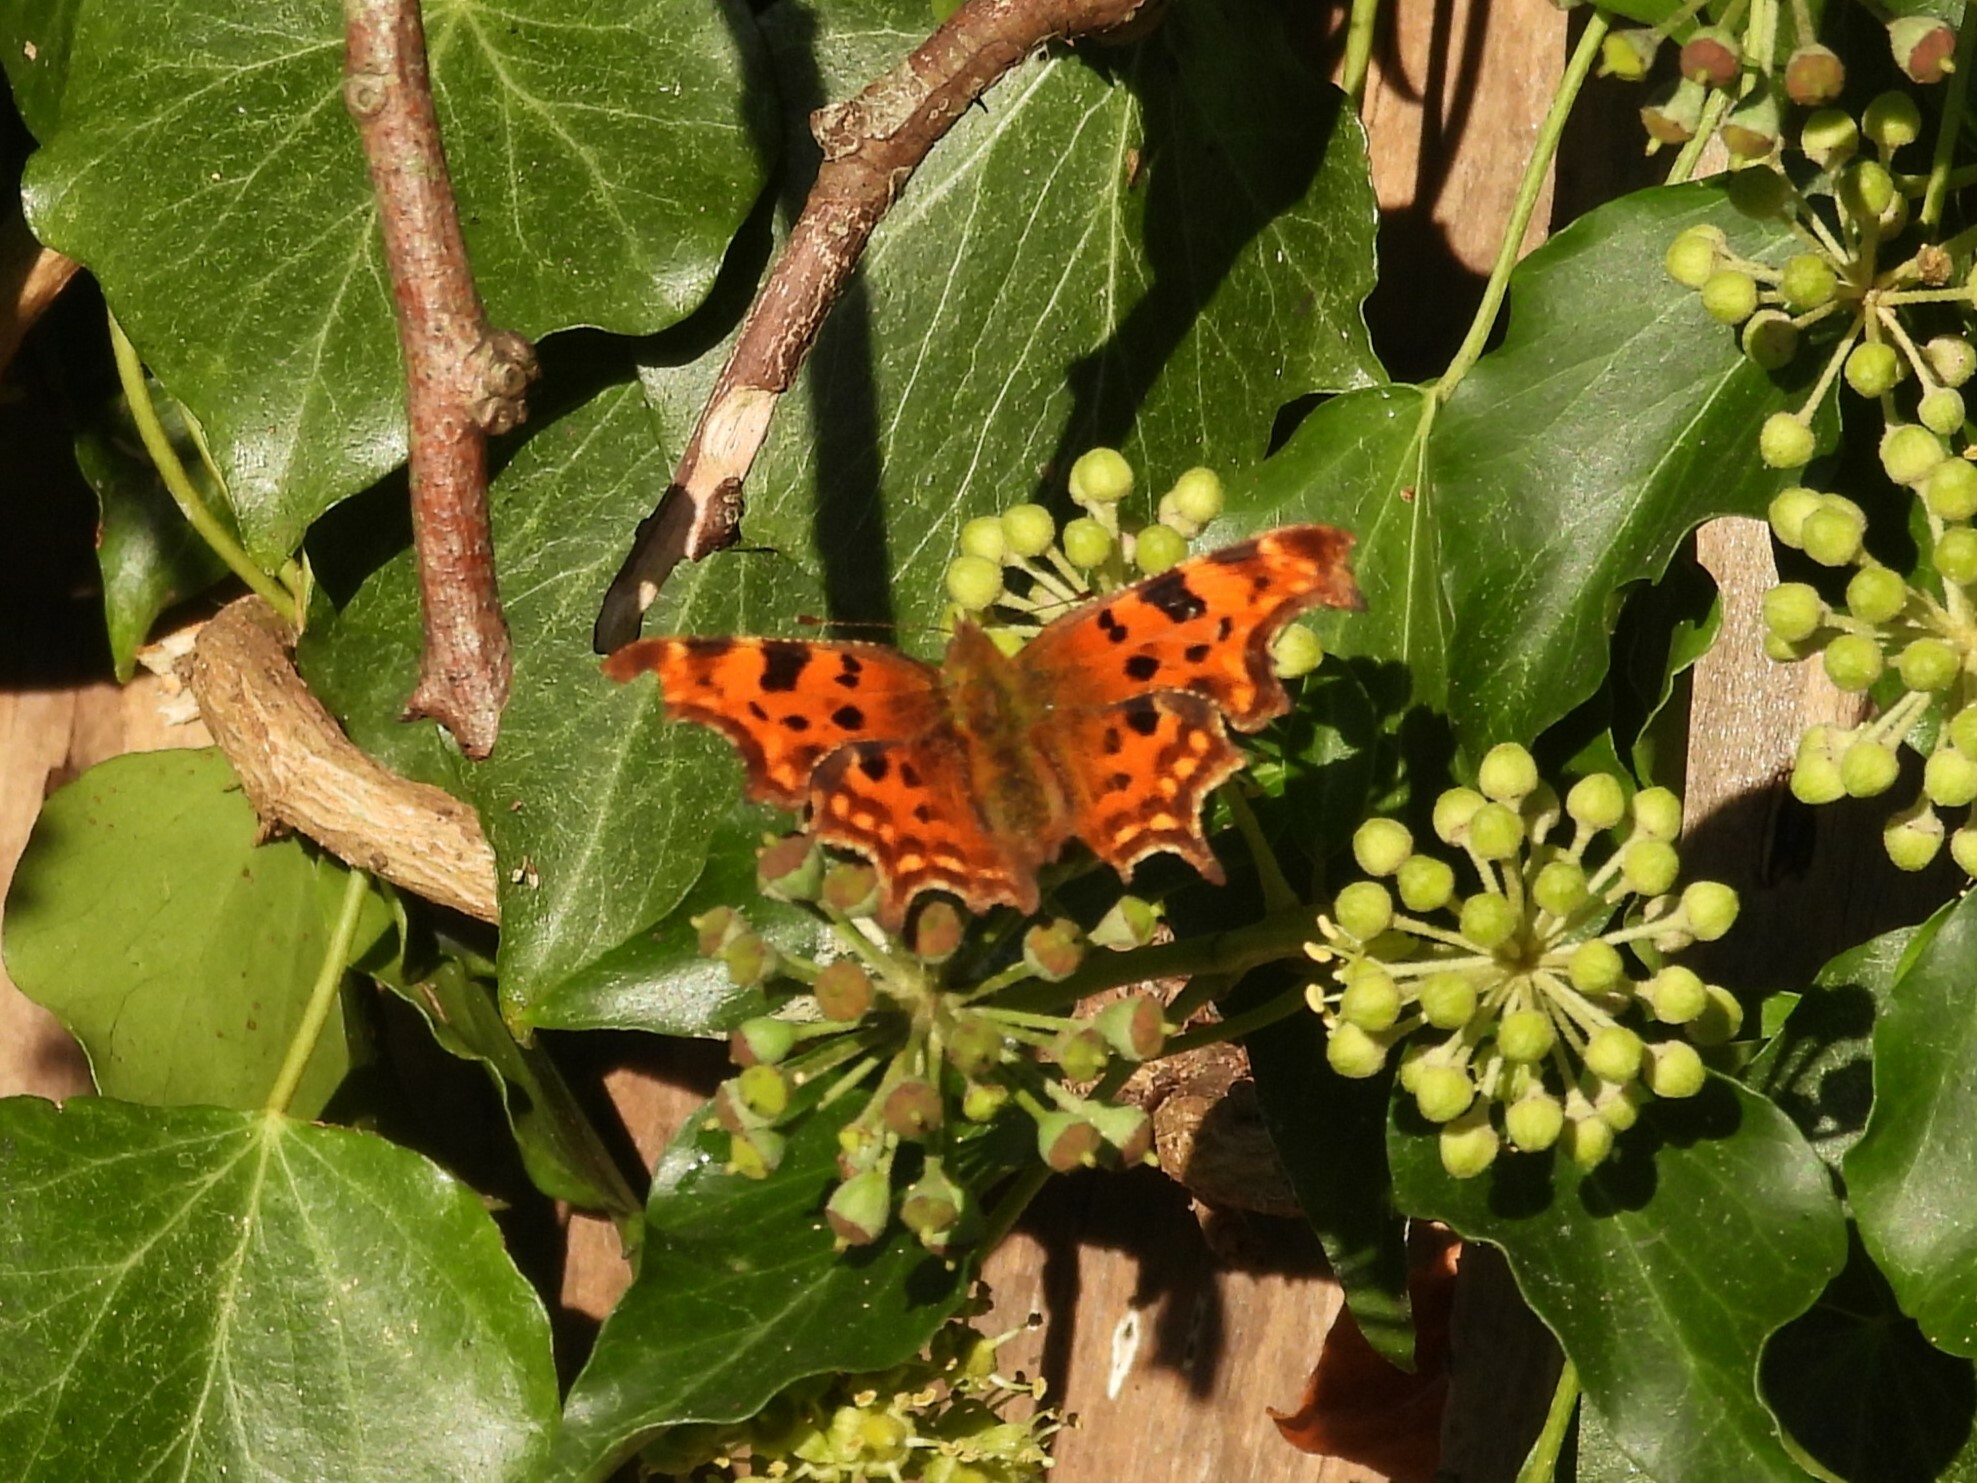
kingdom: Animalia
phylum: Arthropoda
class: Insecta
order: Lepidoptera
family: Nymphalidae
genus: Polygonia
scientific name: Polygonia c-album
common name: Comma
